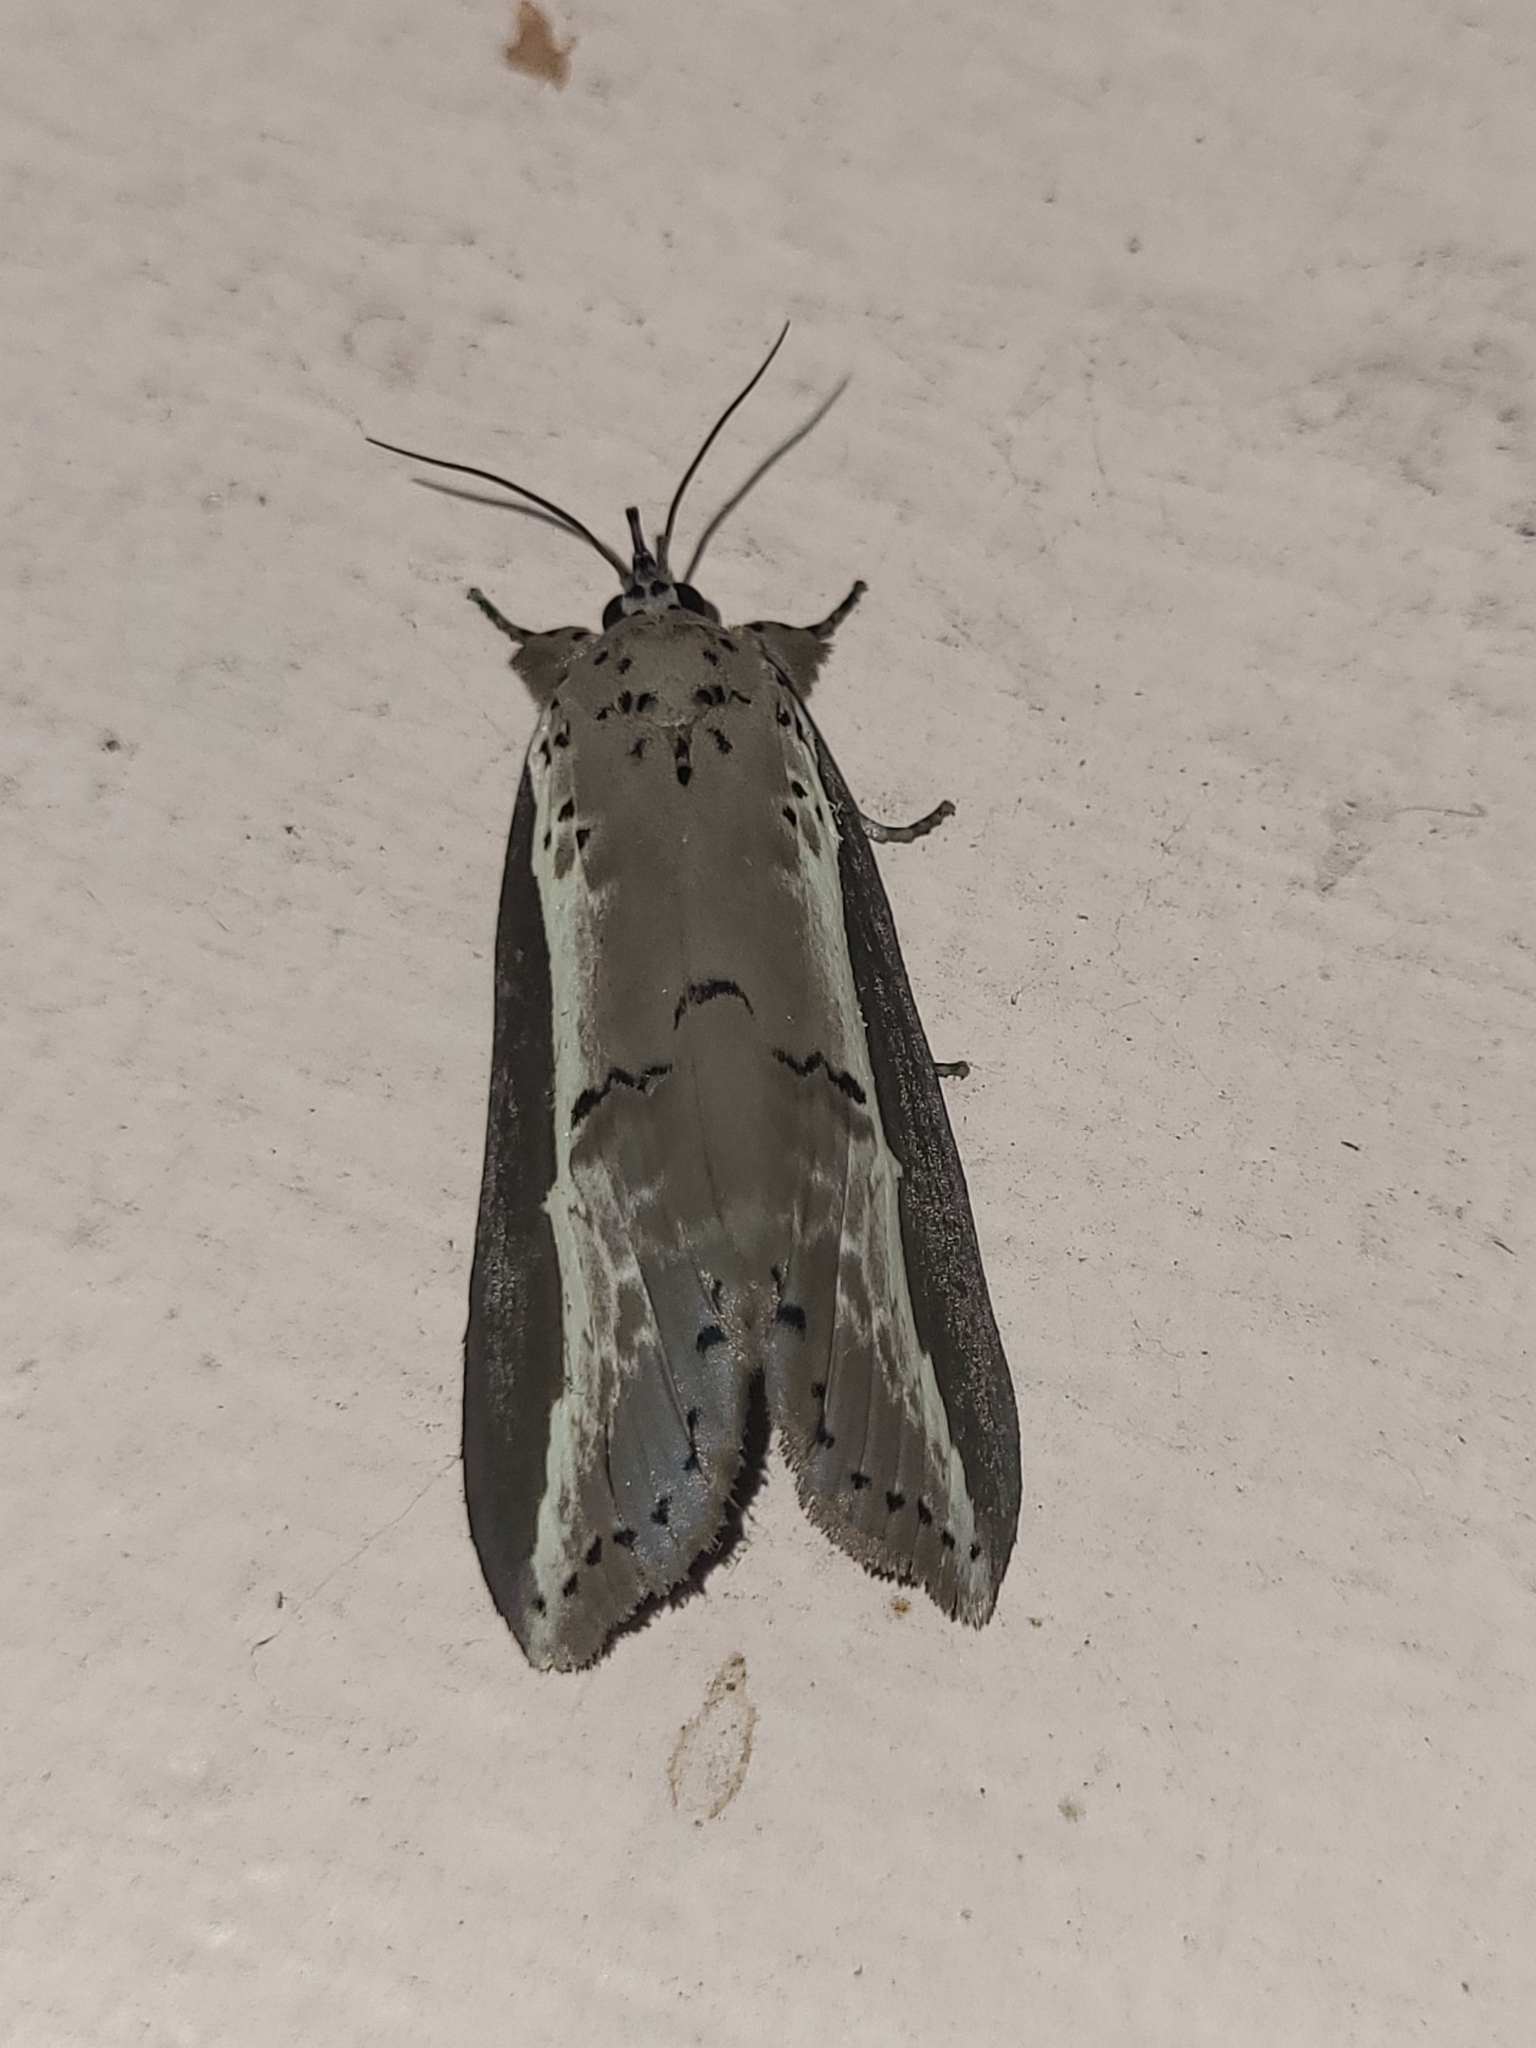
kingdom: Animalia
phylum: Arthropoda
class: Insecta
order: Lepidoptera
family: Nolidae
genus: Eligma
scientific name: Eligma narcissus
